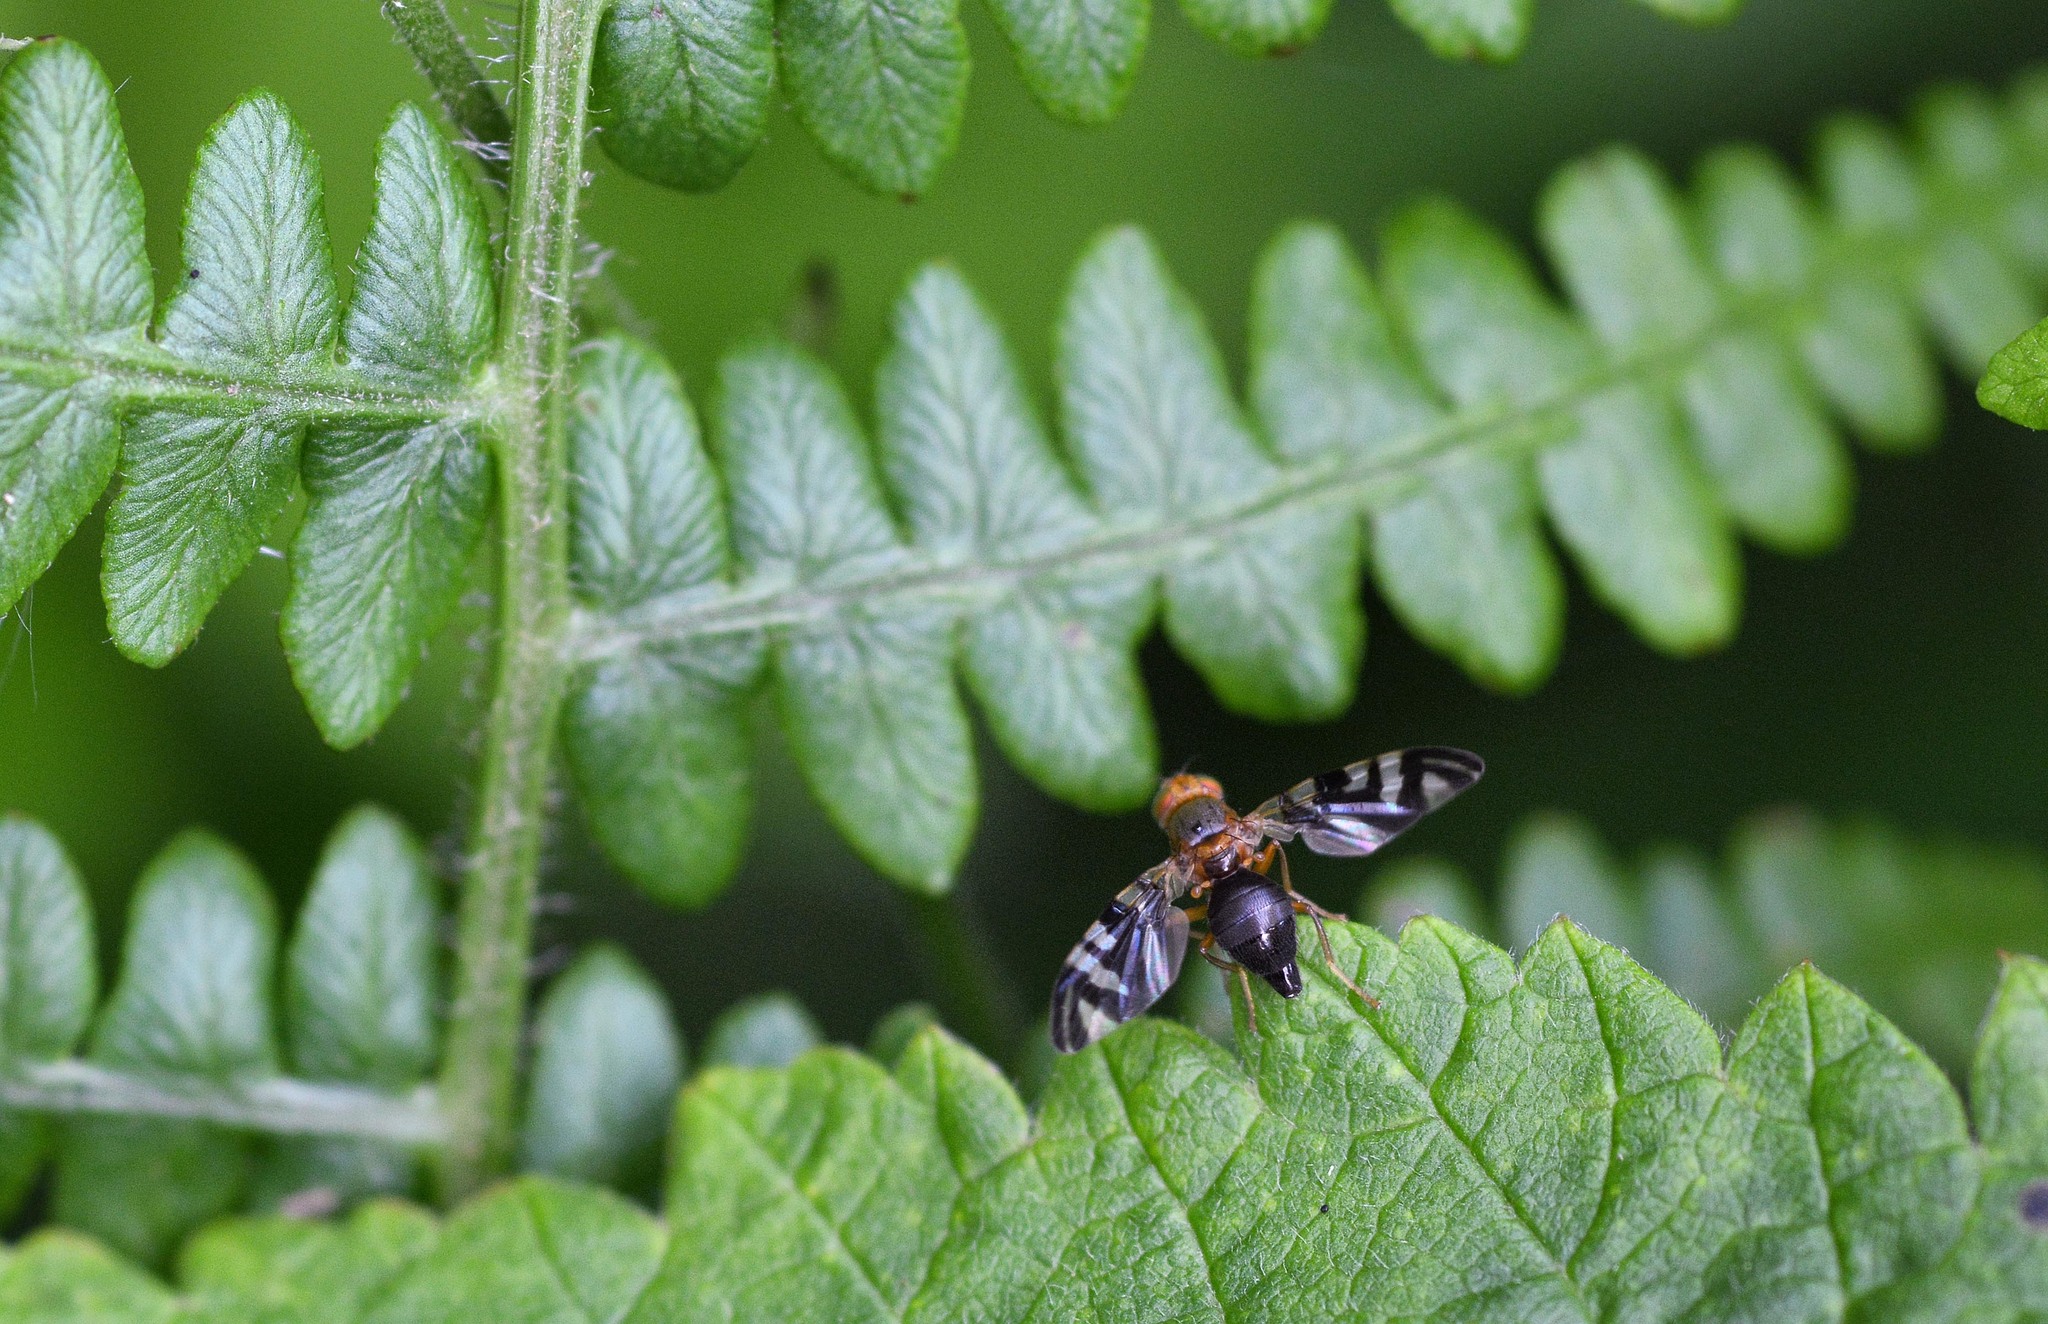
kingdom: Animalia
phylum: Arthropoda
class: Insecta
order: Diptera
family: Tephritidae
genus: Philophylla
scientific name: Philophylla caesio
